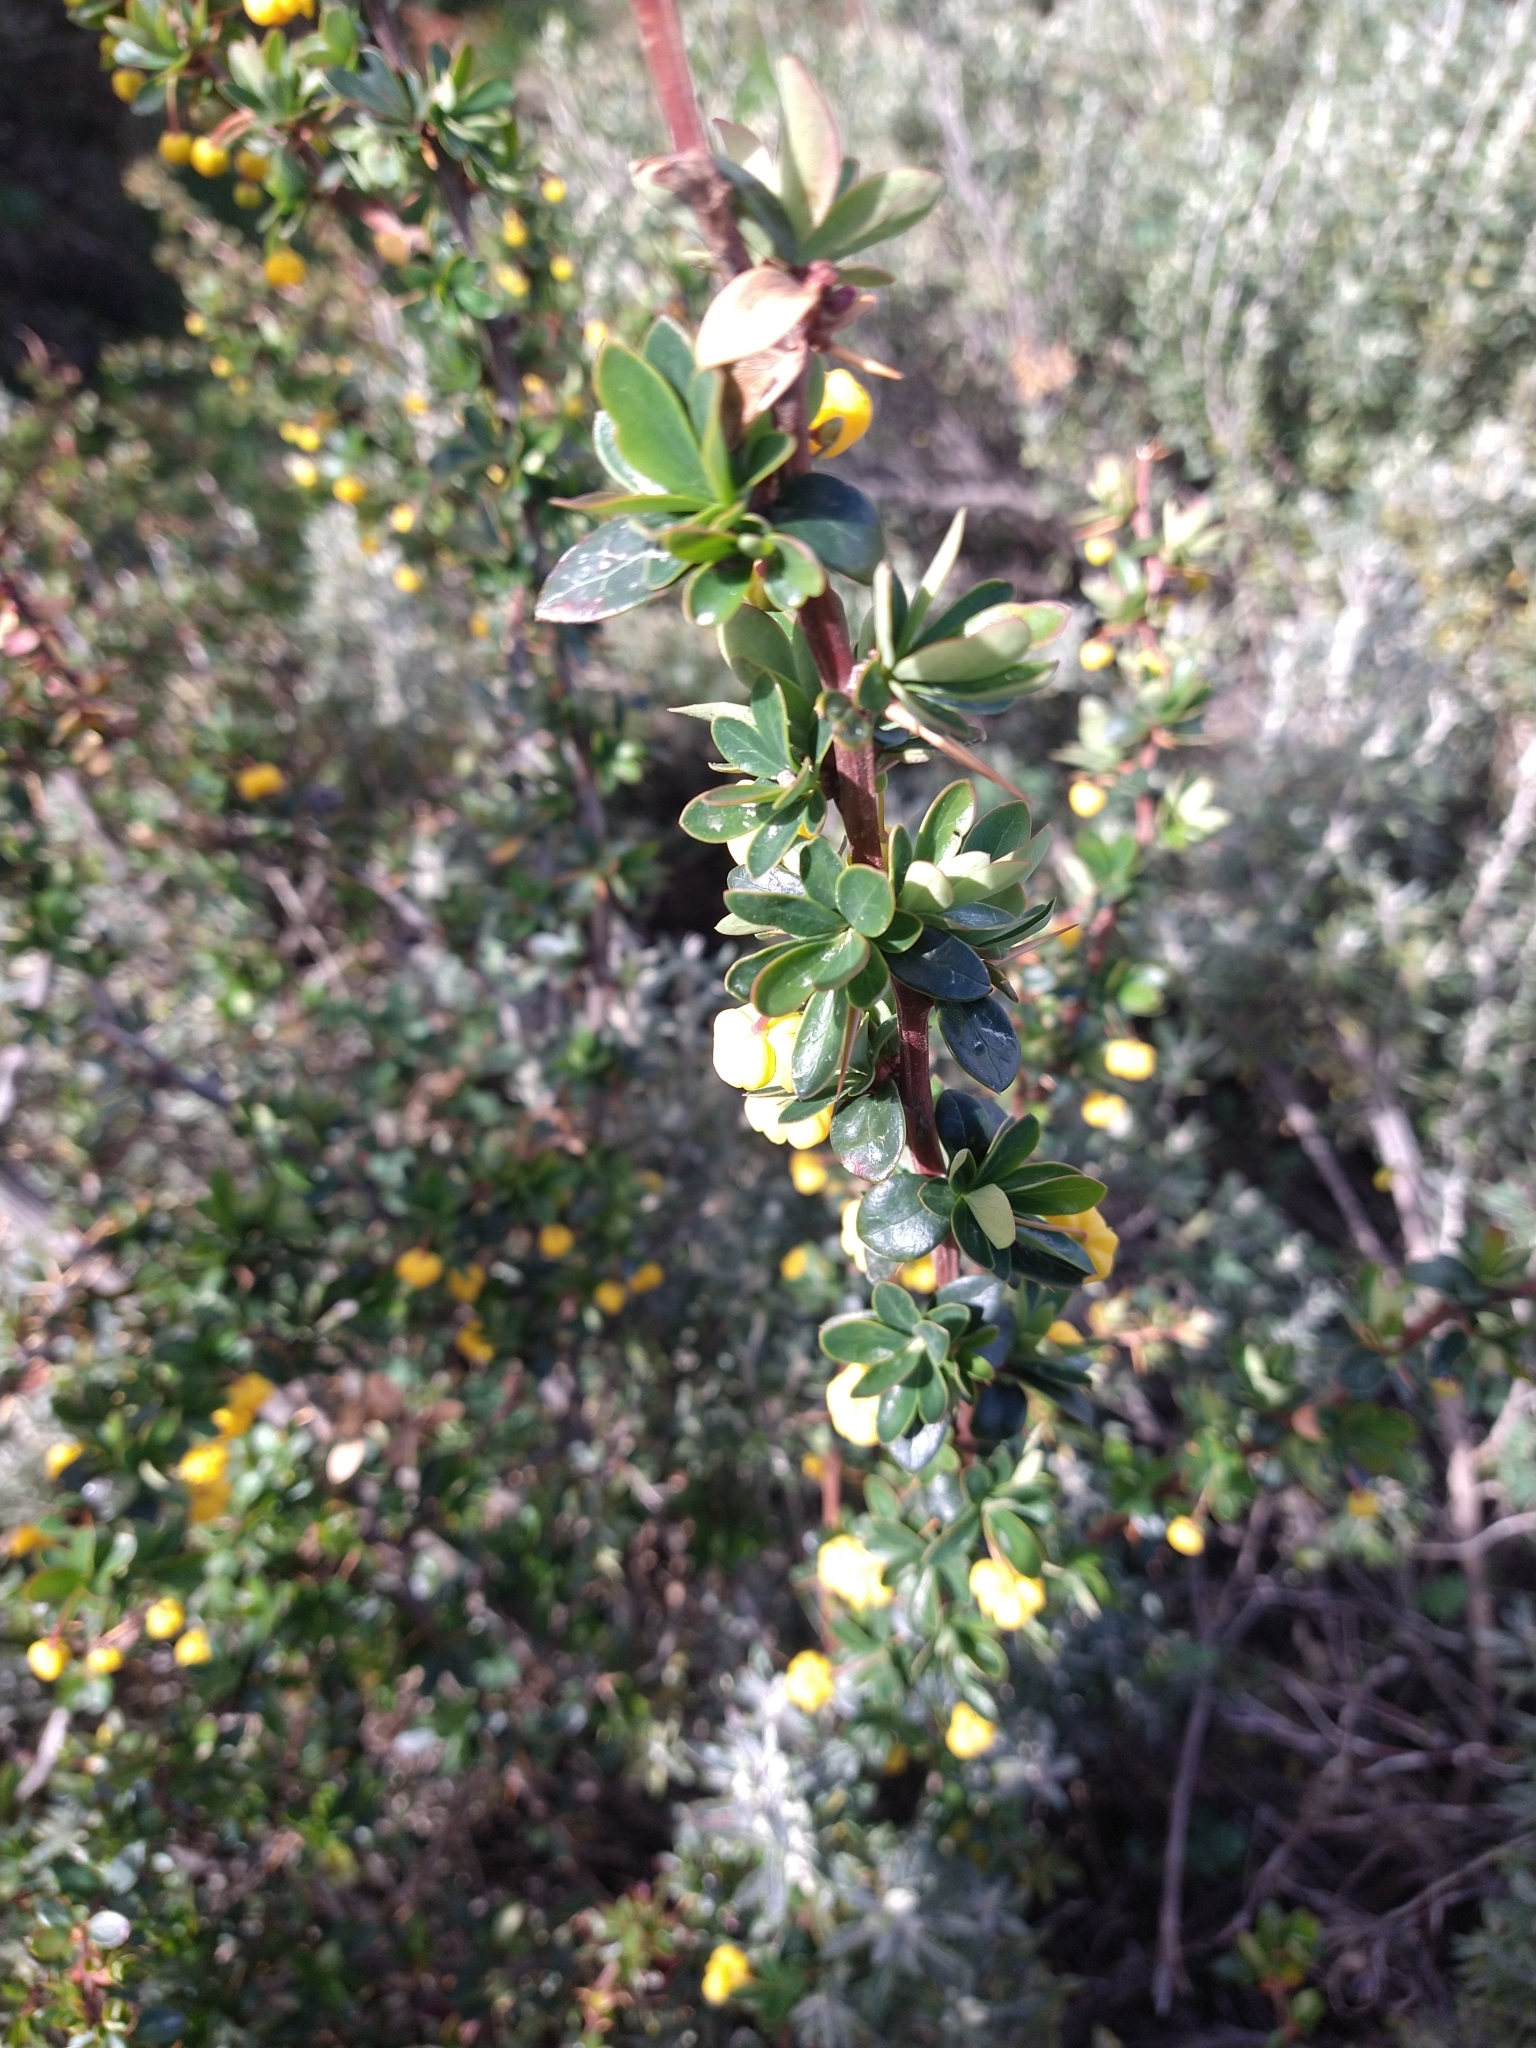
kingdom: Plantae
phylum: Tracheophyta
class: Magnoliopsida
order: Ranunculales
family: Berberidaceae
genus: Berberis
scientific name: Berberis microphylla
